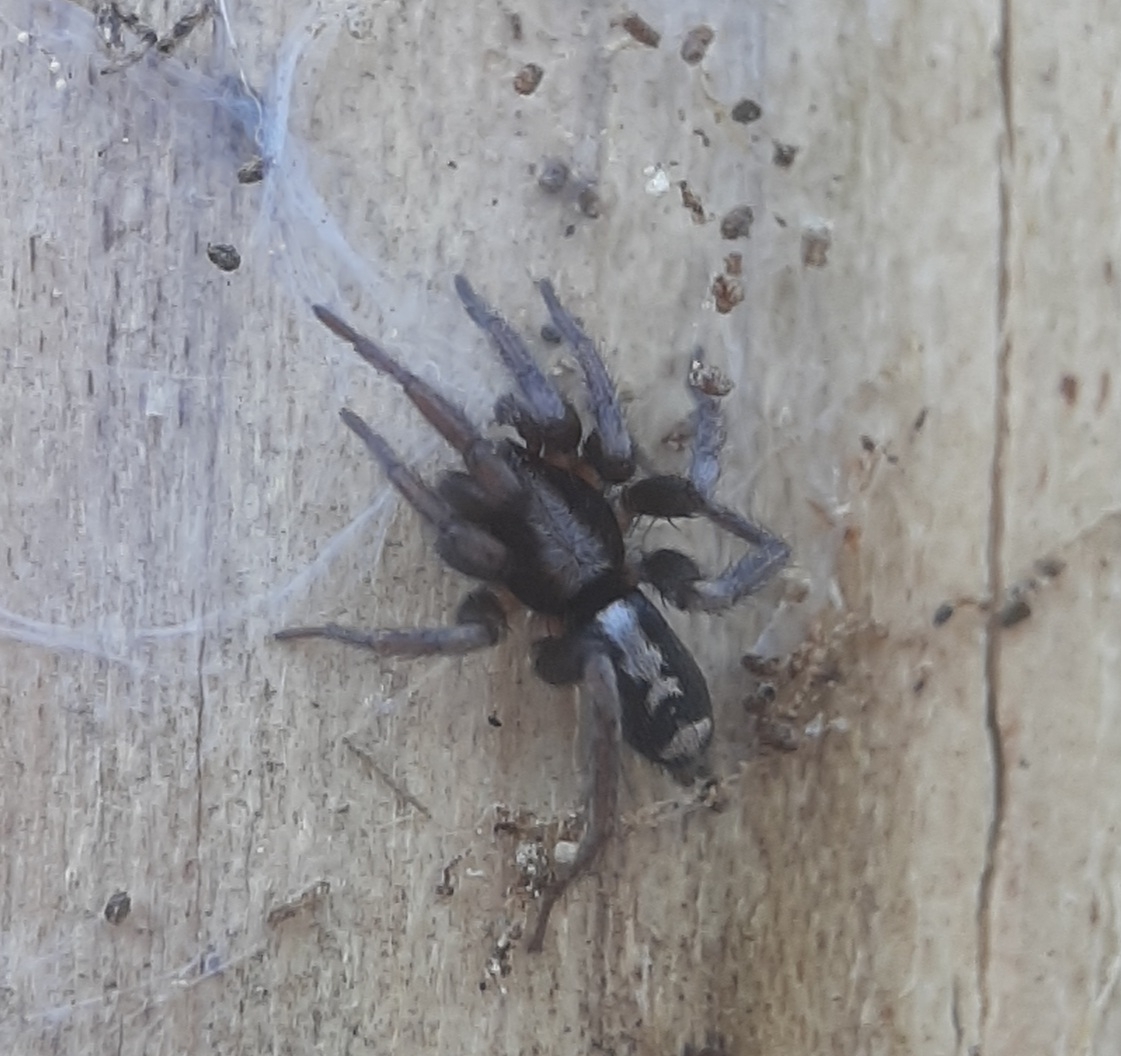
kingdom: Animalia
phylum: Arthropoda
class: Arachnida
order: Araneae
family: Gnaphosidae
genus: Herpyllus
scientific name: Herpyllus ecclesiasticus
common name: Eastern parson spider
